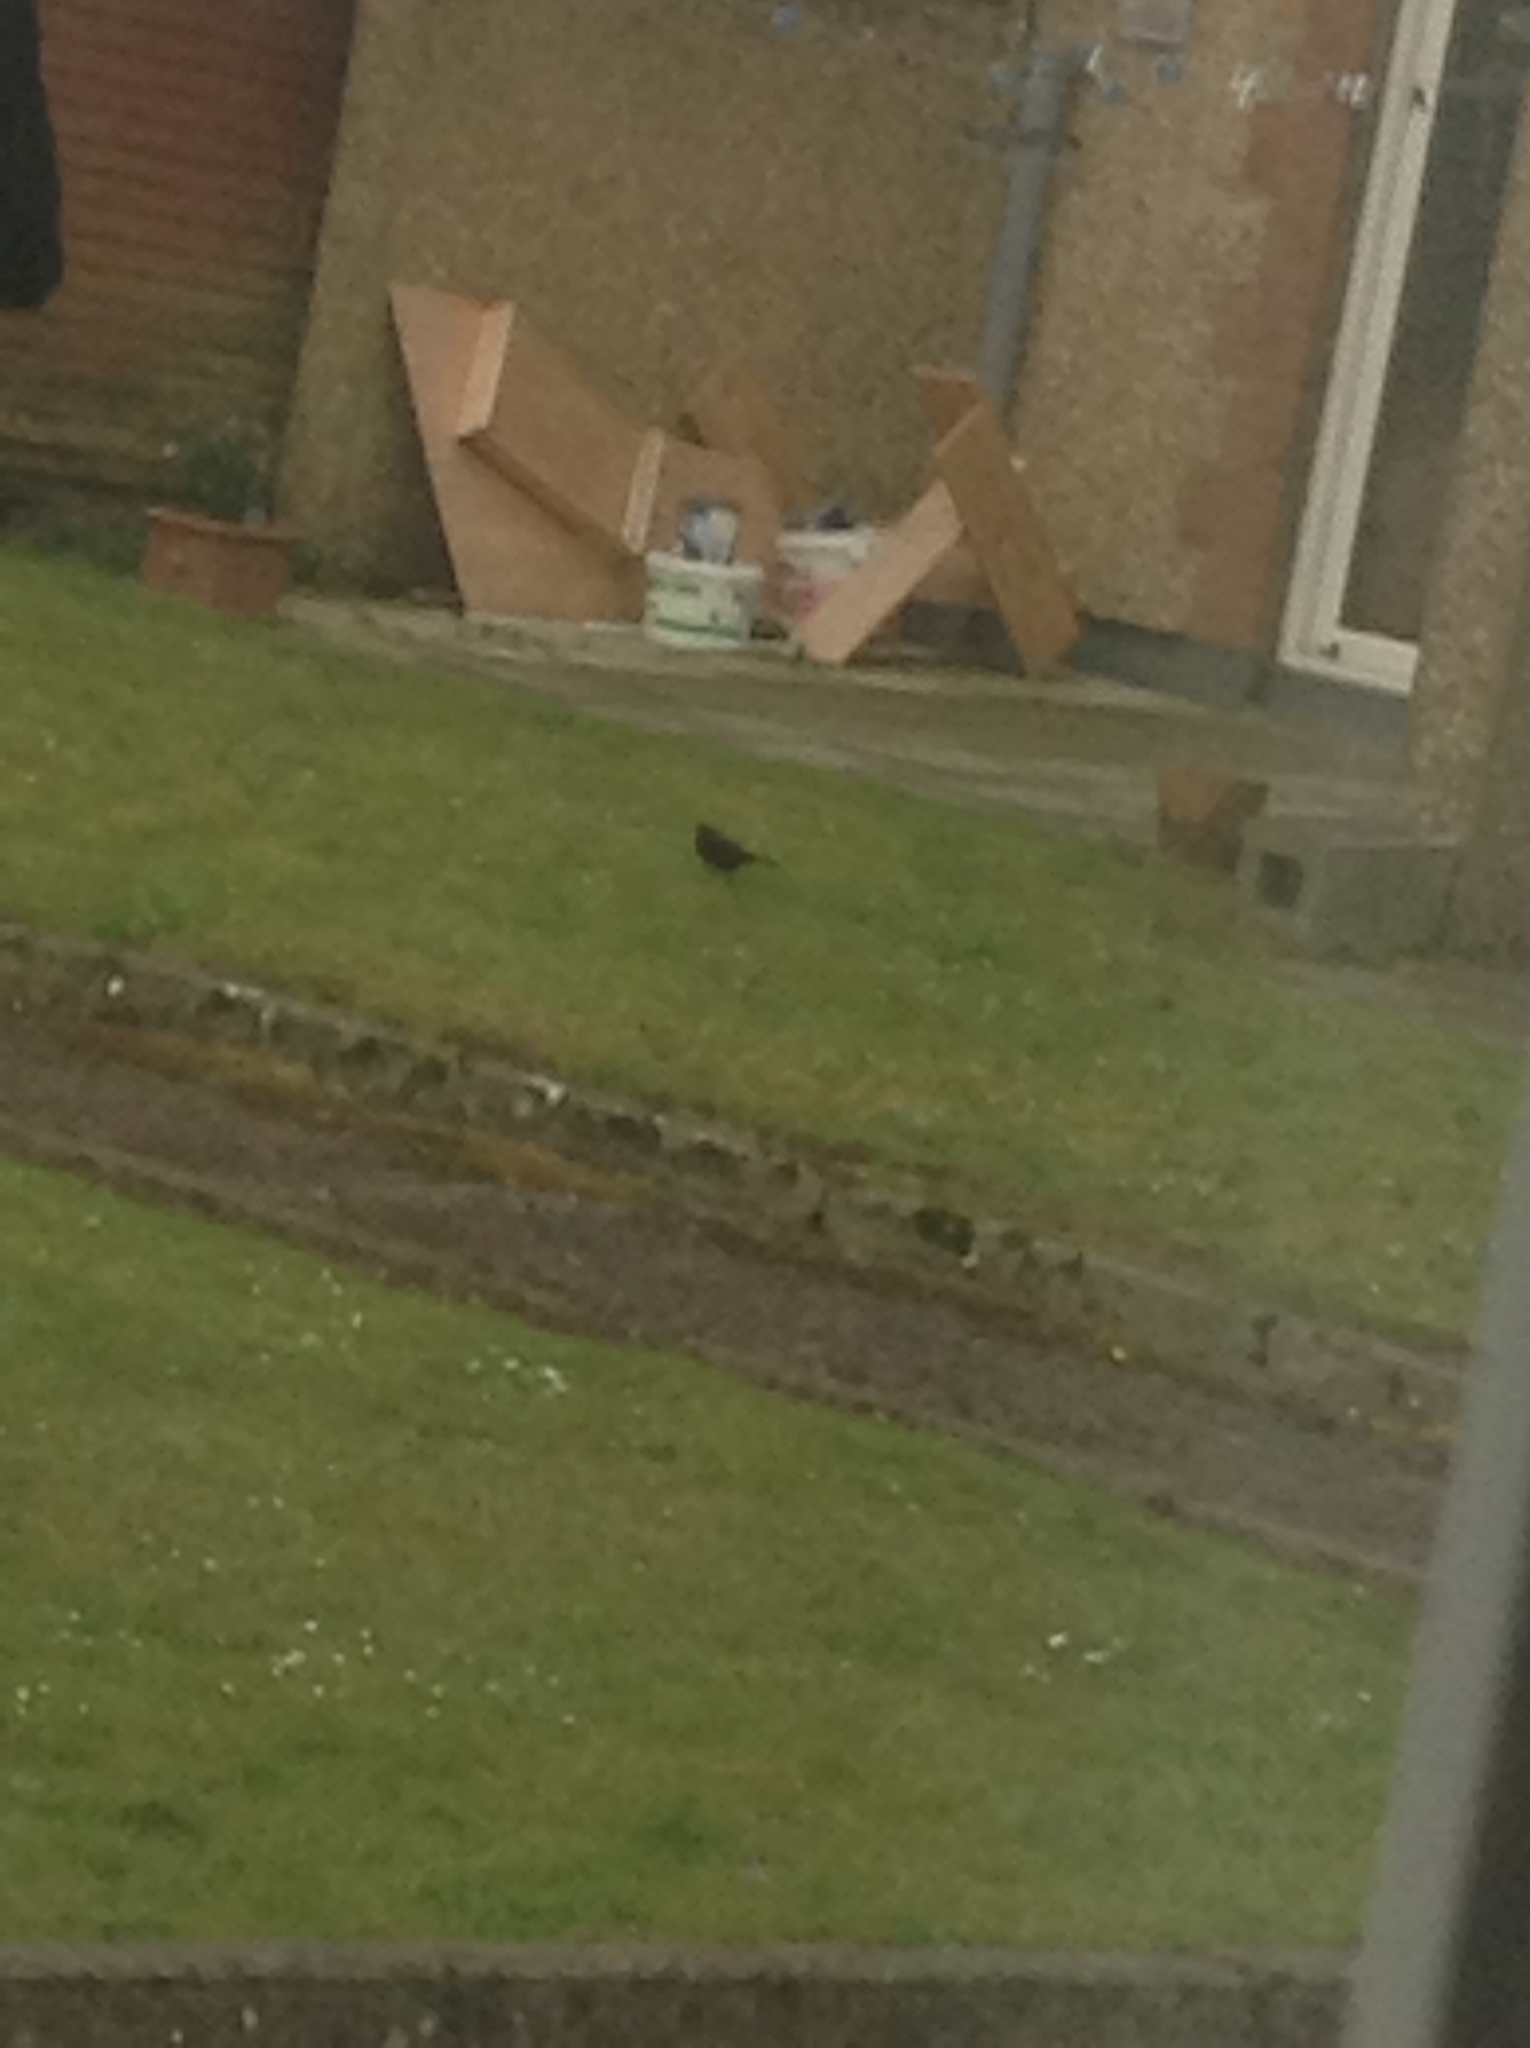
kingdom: Animalia
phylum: Chordata
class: Aves
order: Passeriformes
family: Turdidae
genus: Turdus
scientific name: Turdus merula
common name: Common blackbird
